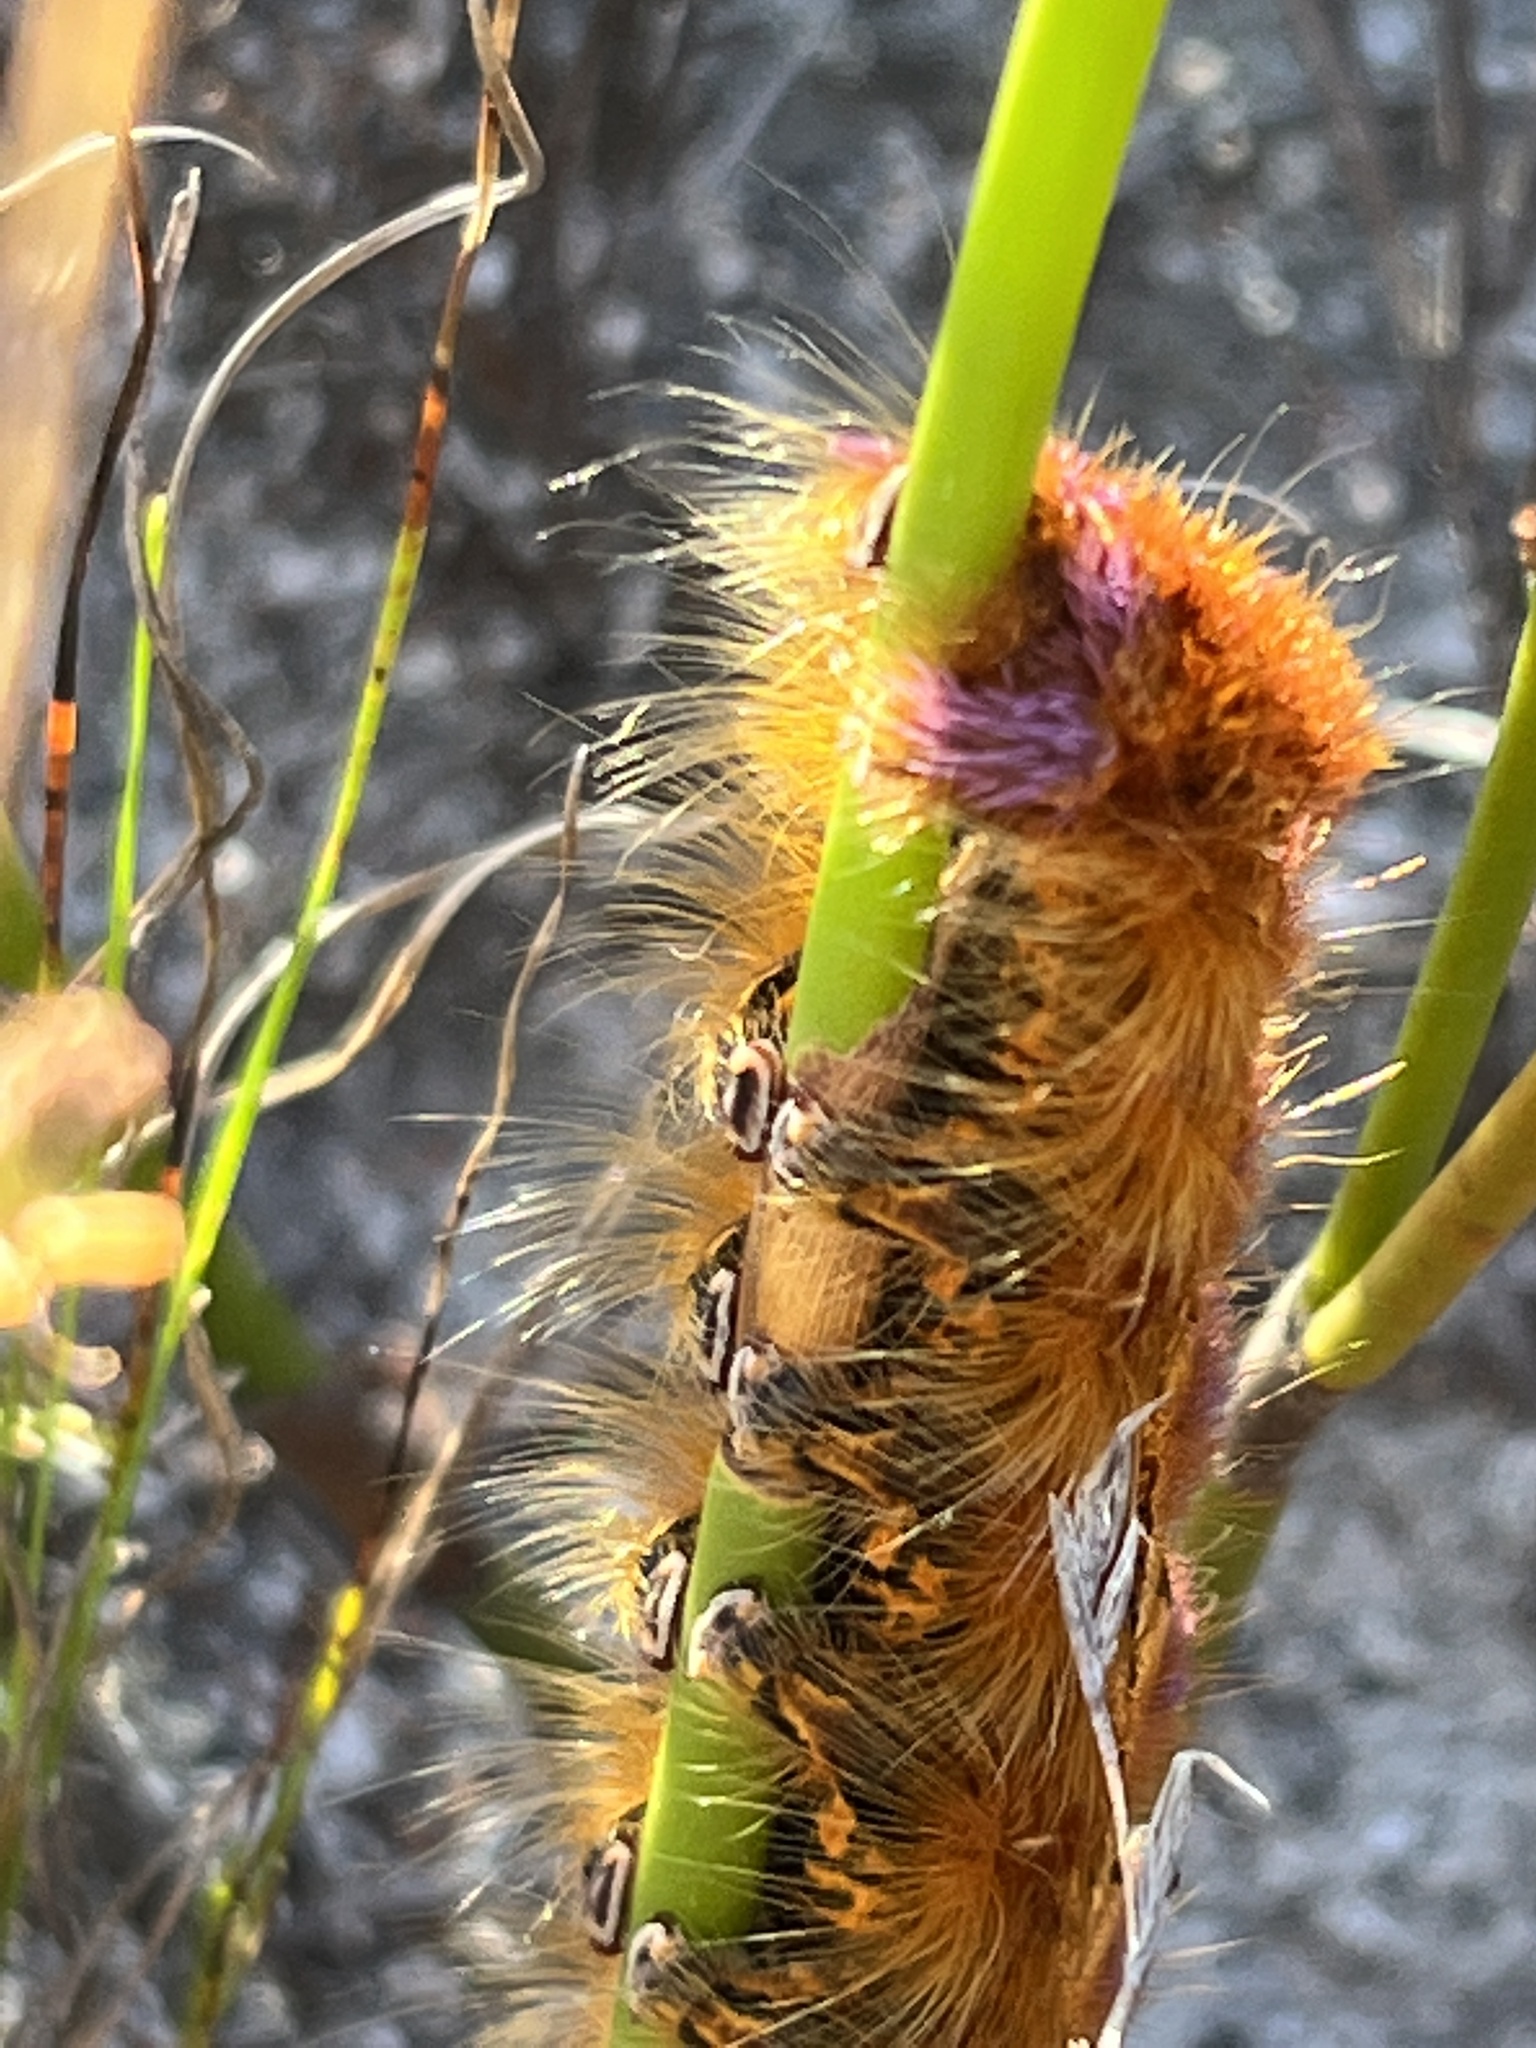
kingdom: Animalia
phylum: Arthropoda
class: Insecta
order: Lepidoptera
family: Lasiocampidae
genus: Eutricha
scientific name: Eutricha bifascia
